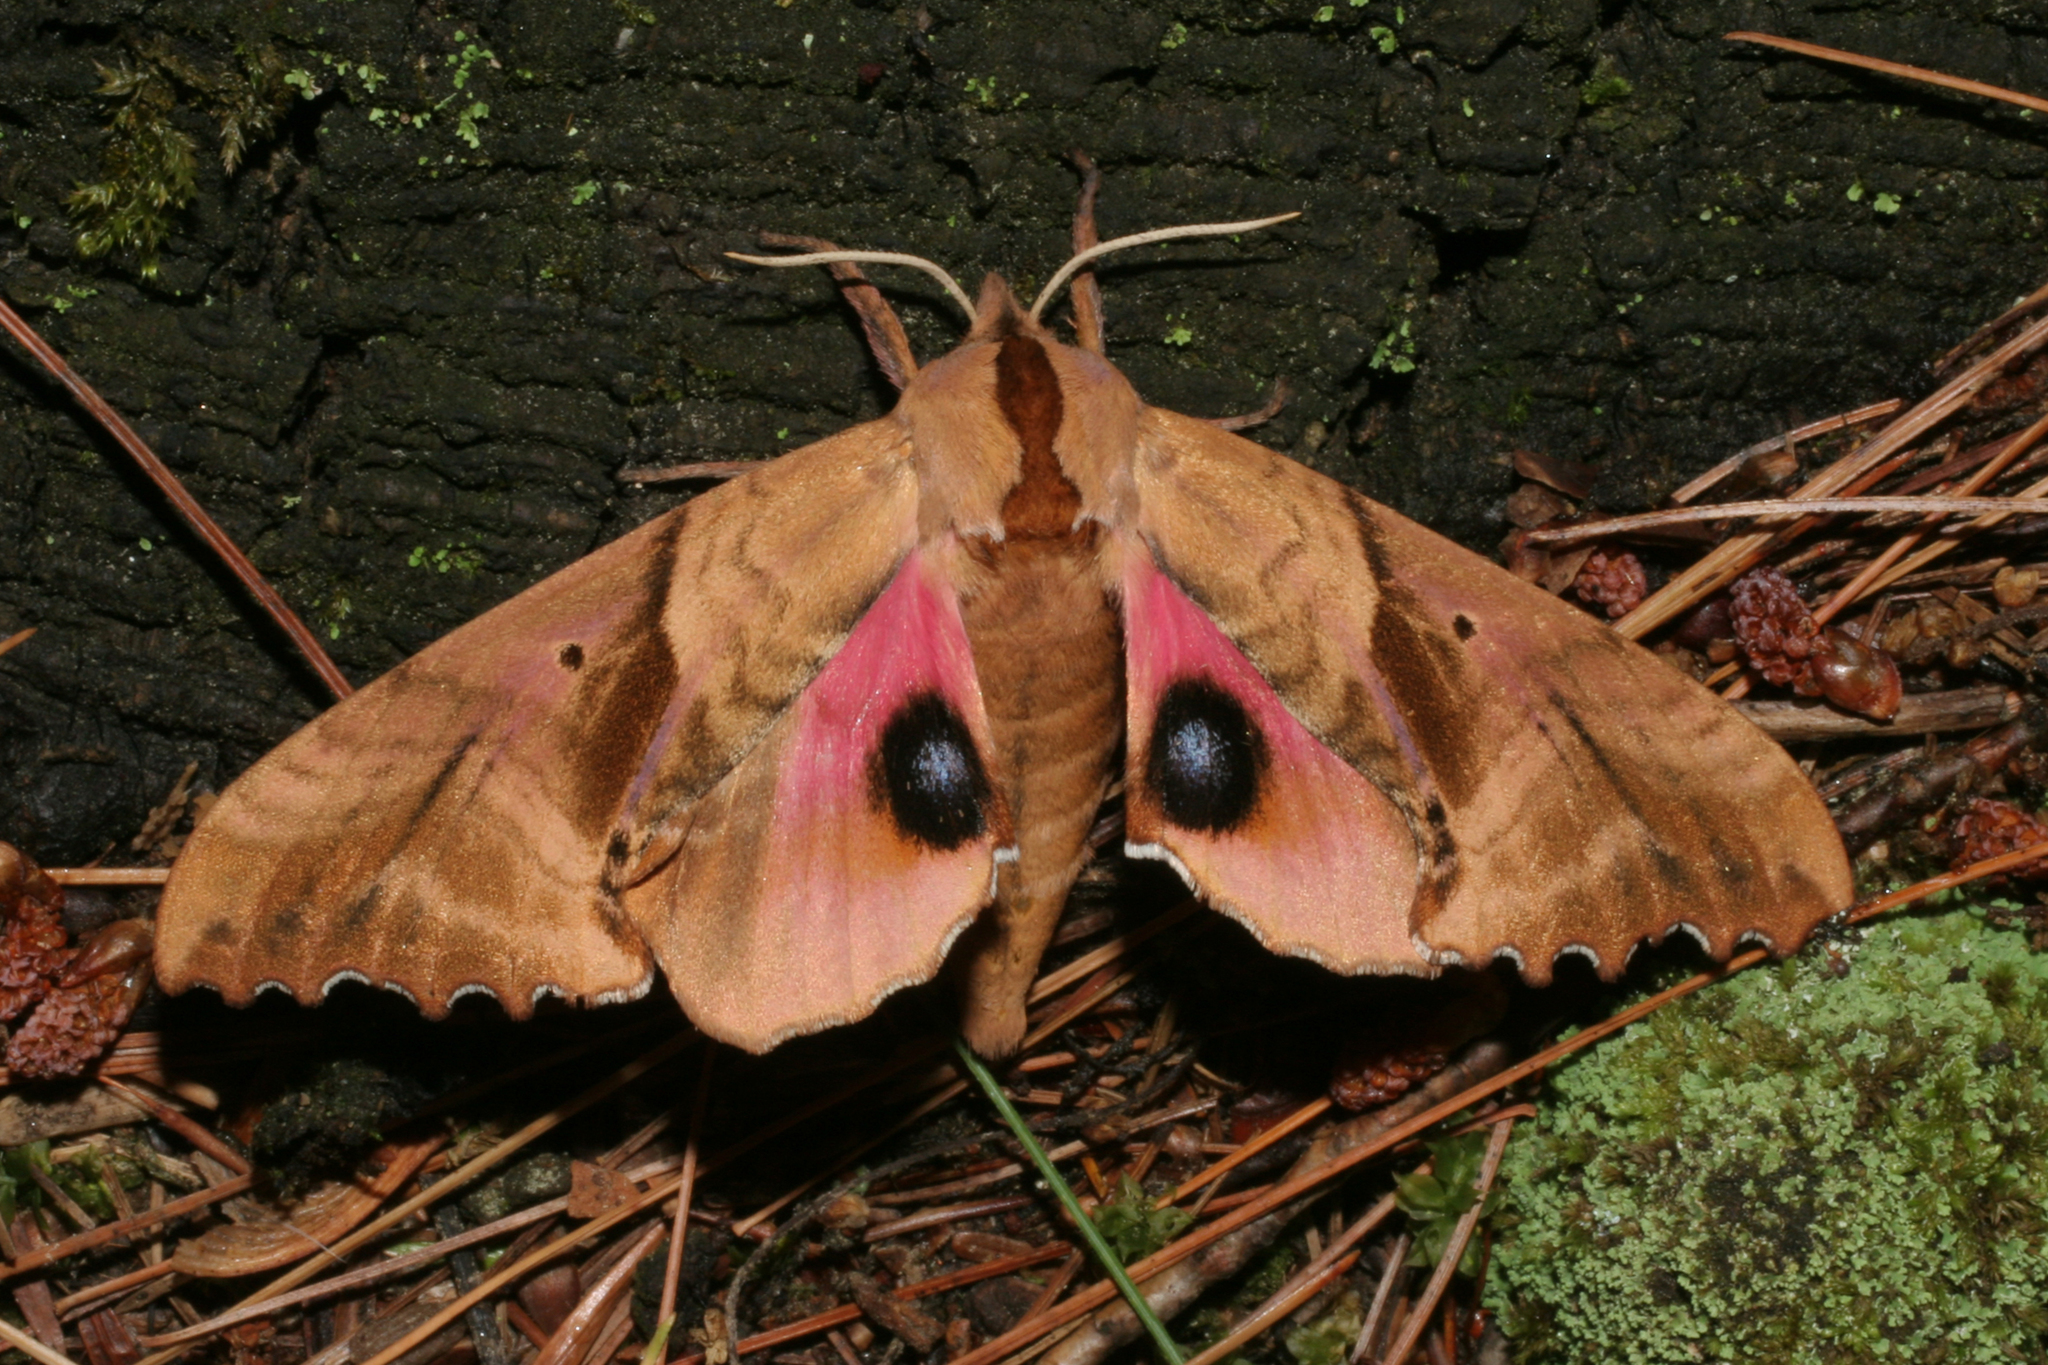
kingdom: Animalia
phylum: Arthropoda
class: Insecta
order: Lepidoptera
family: Sphingidae
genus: Paonias
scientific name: Paonias excaecata
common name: Blind-eyed sphinx
